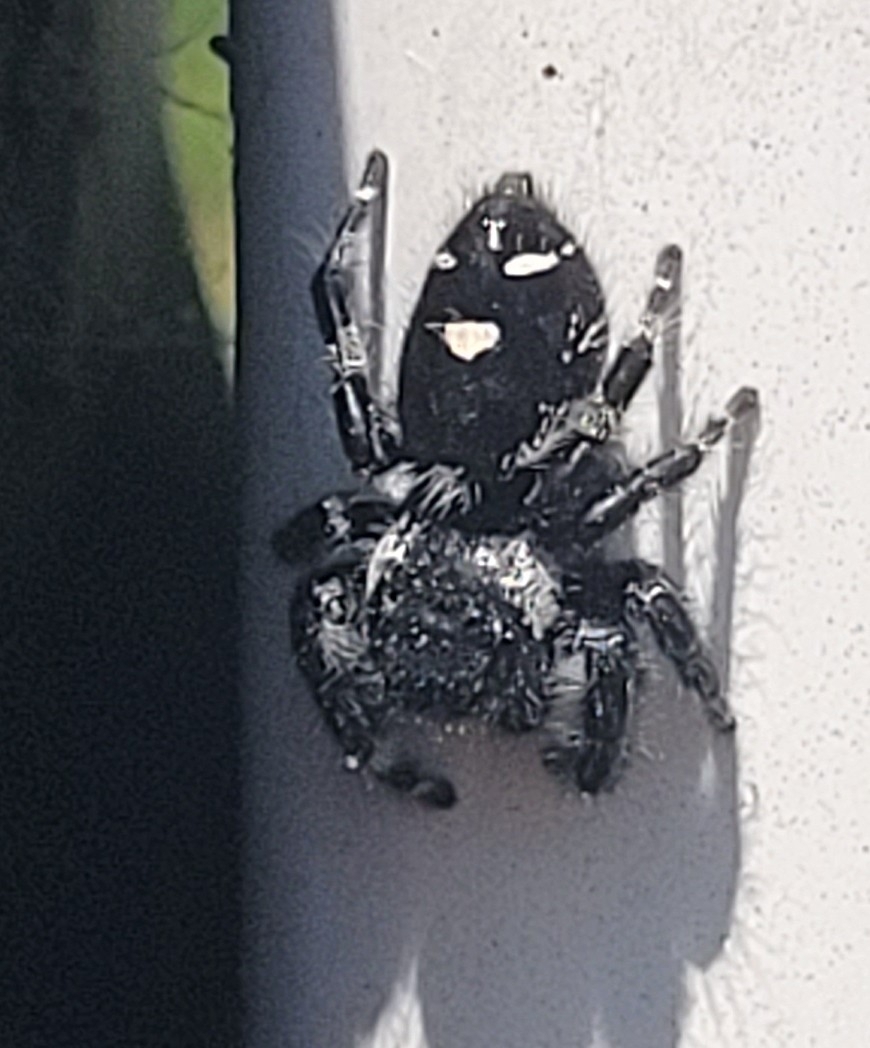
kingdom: Animalia
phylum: Arthropoda
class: Arachnida
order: Araneae
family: Salticidae
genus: Phidippus
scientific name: Phidippus audax
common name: Bold jumper
